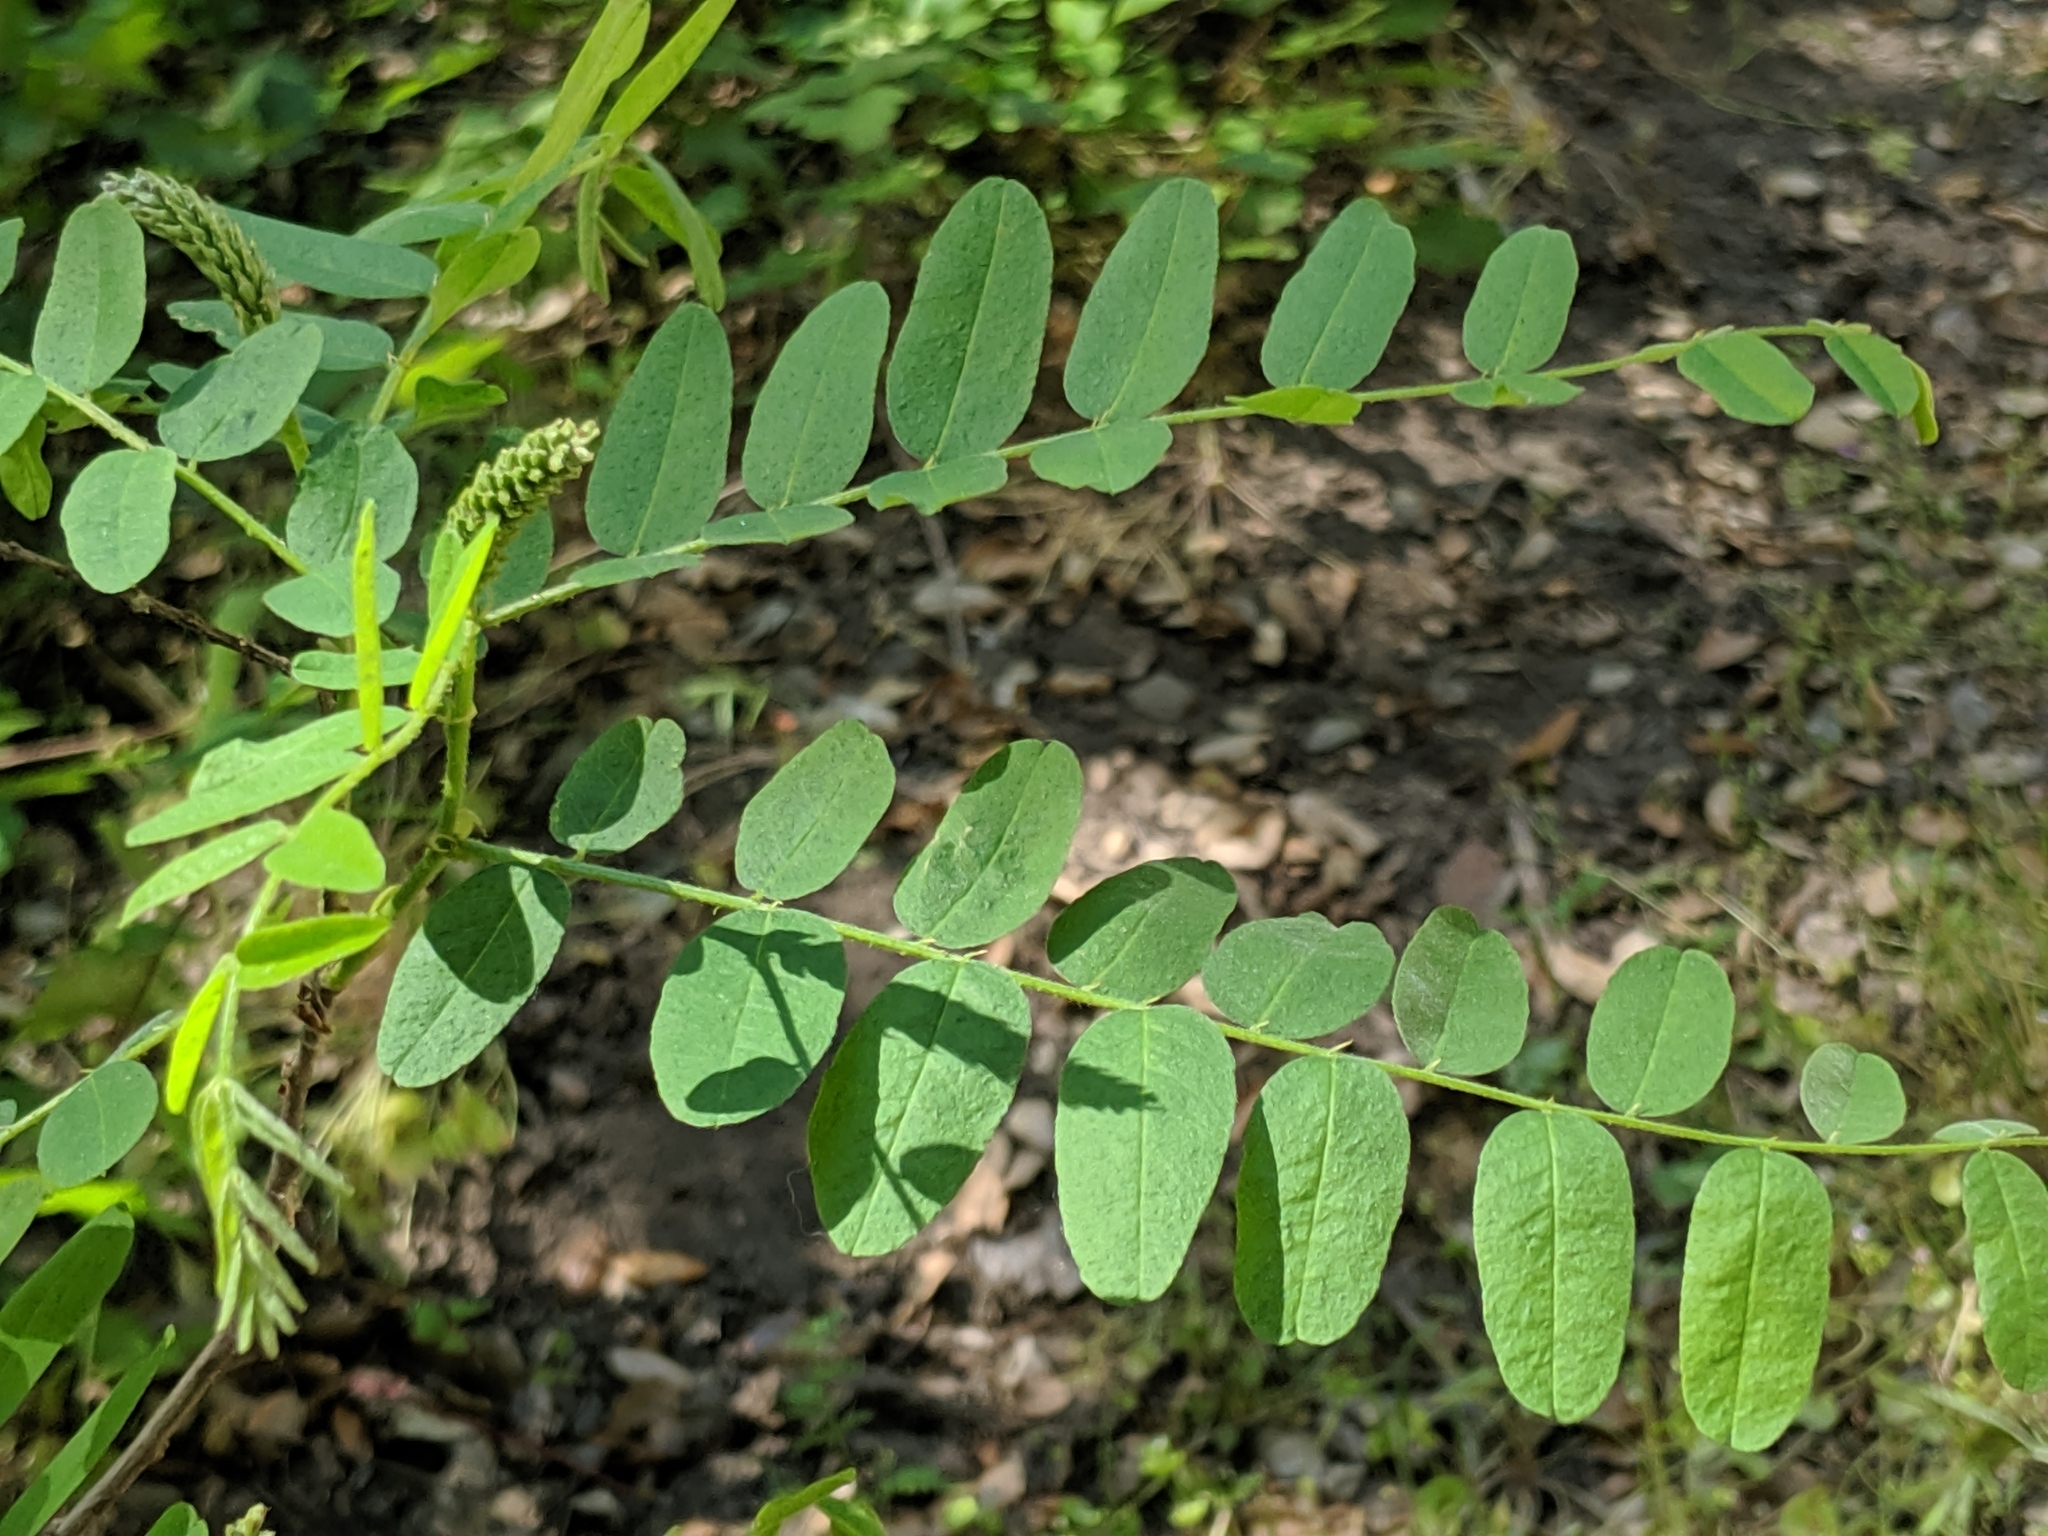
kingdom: Plantae
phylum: Tracheophyta
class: Magnoliopsida
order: Fabales
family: Fabaceae
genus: Amorpha
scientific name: Amorpha californica
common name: California indigobush
